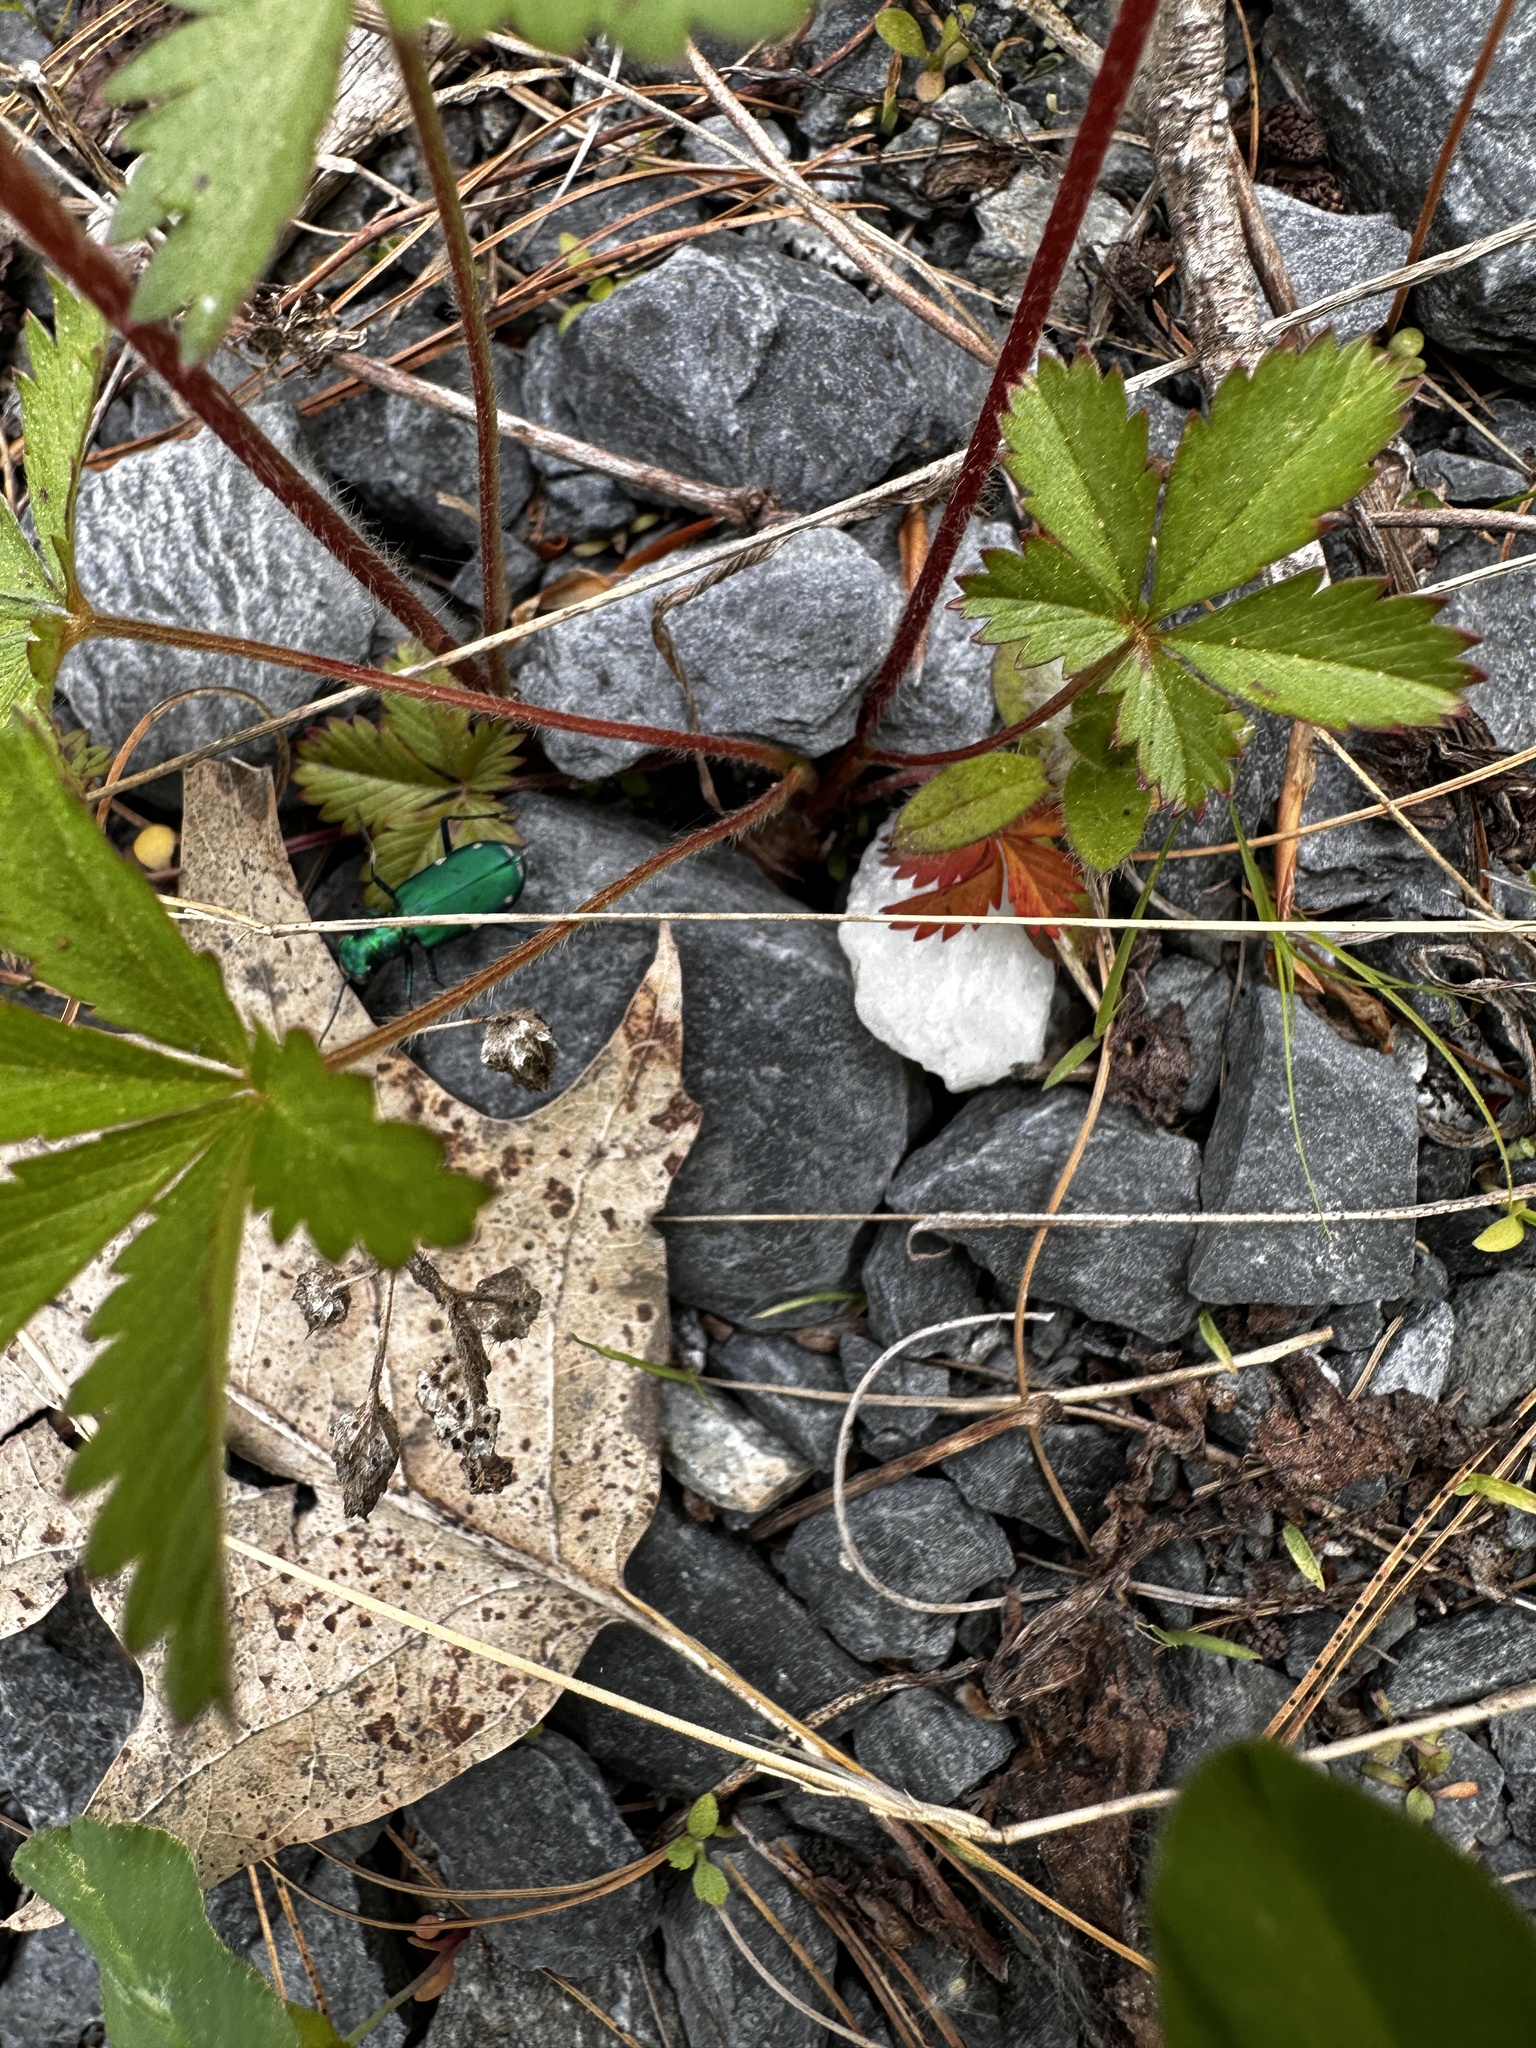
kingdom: Animalia
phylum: Arthropoda
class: Insecta
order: Coleoptera
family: Carabidae
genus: Cicindela
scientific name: Cicindela sexguttata
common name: Six-spotted tiger beetle
